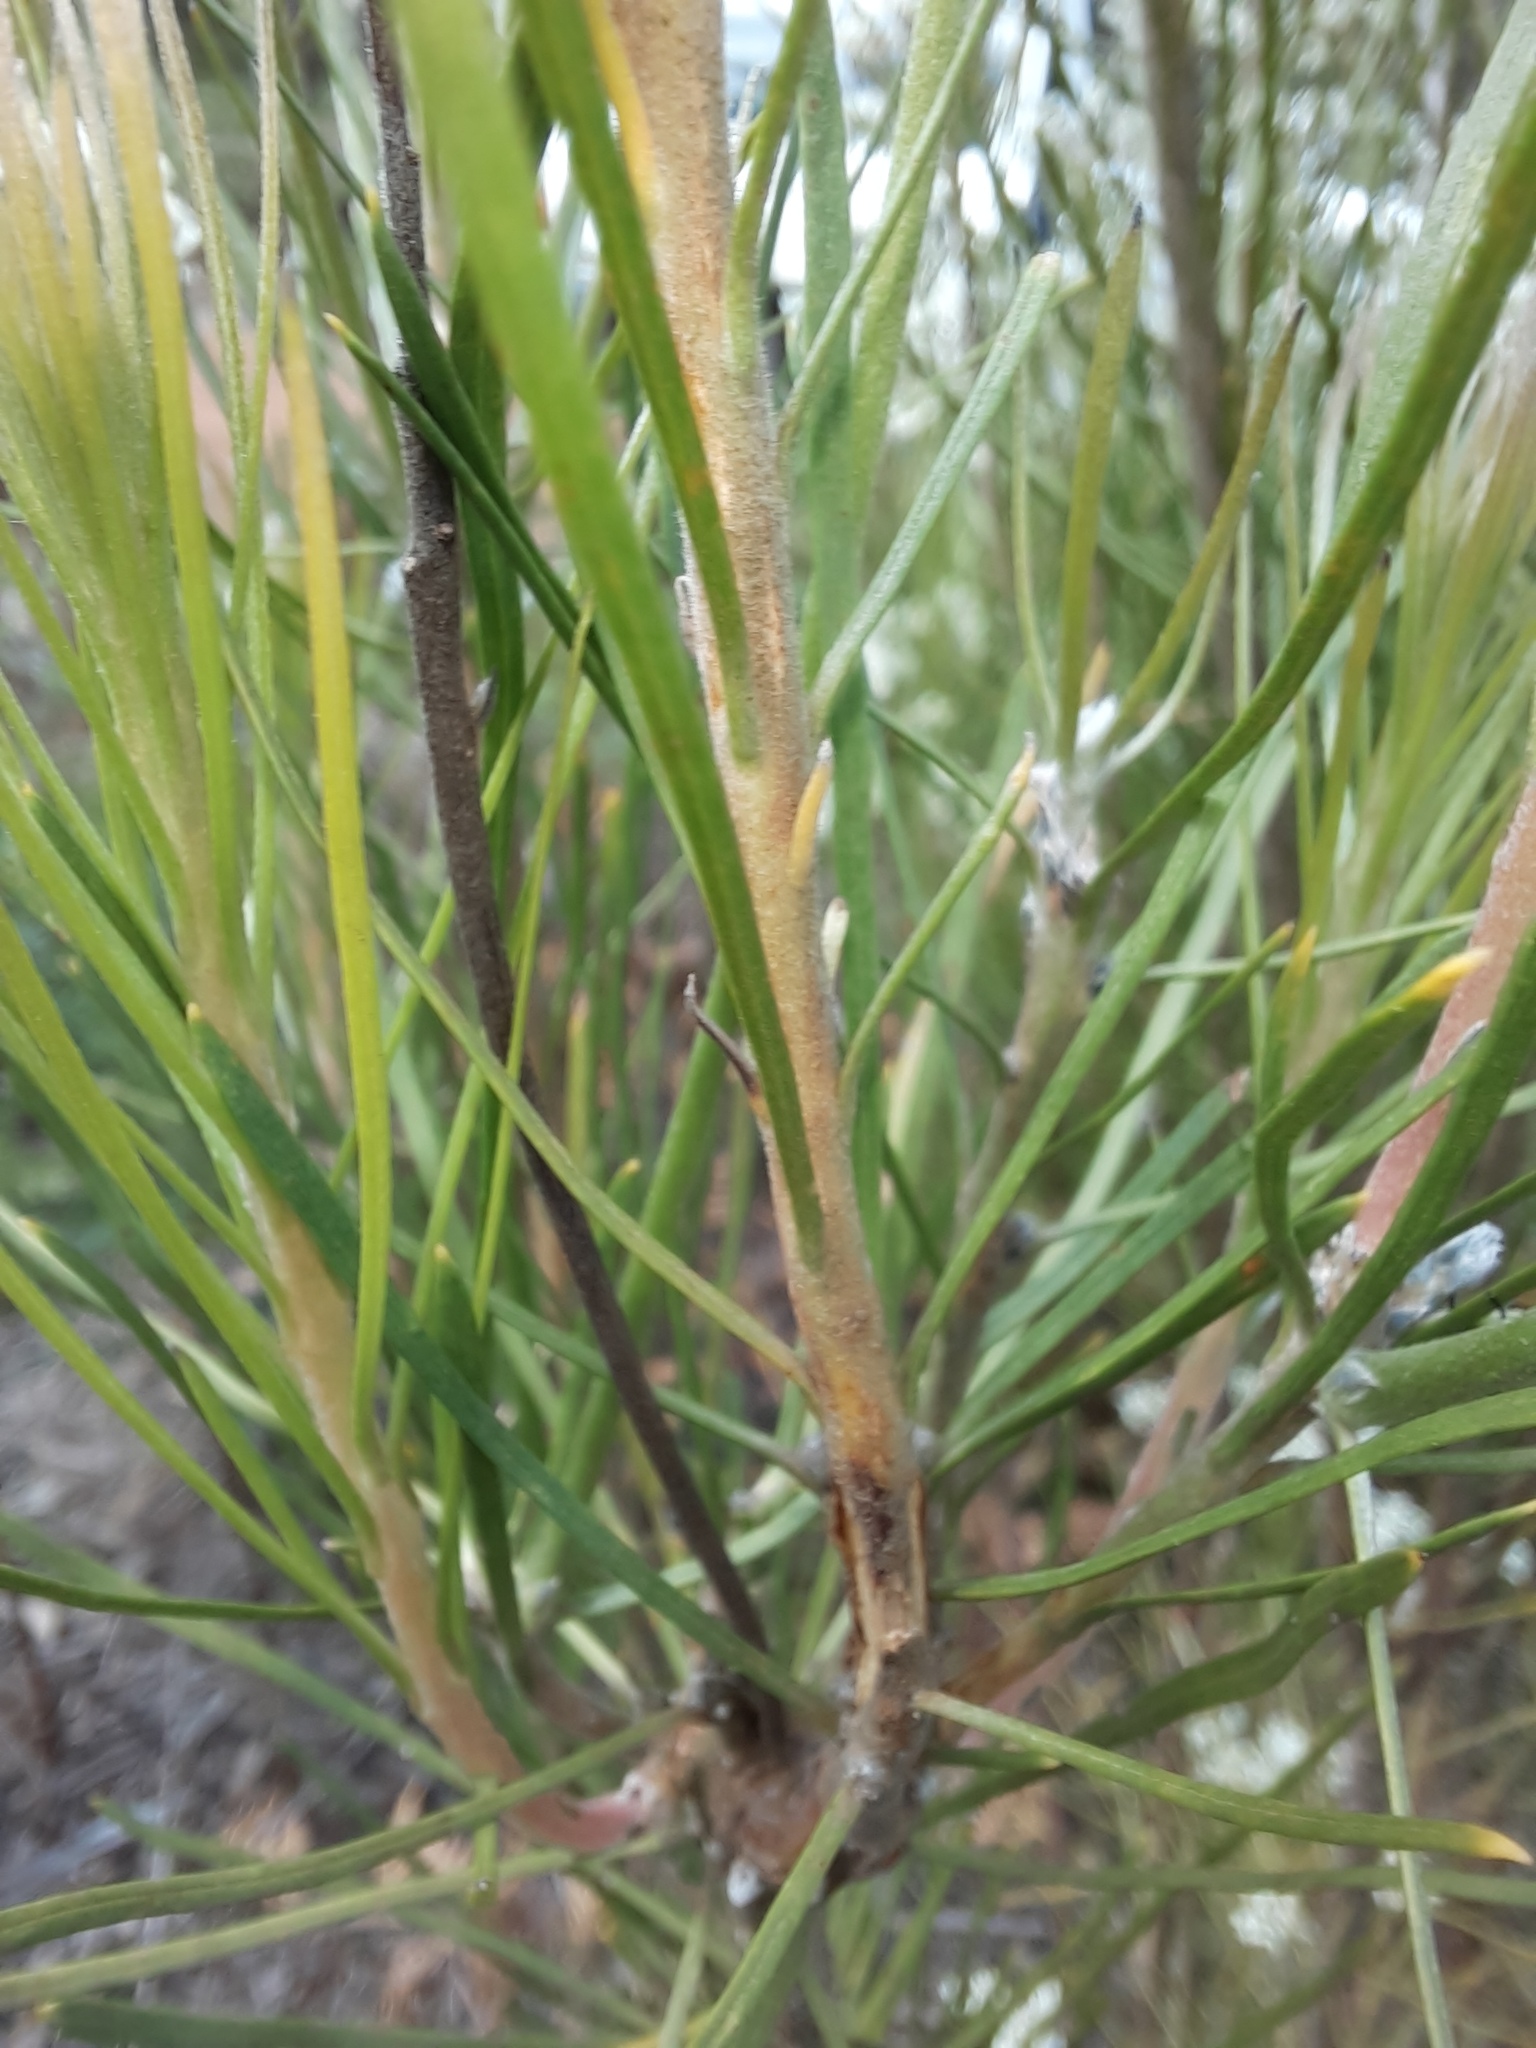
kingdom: Plantae
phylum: Tracheophyta
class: Magnoliopsida
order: Proteales
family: Proteaceae
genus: Conospermum
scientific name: Conospermum mitchellii
